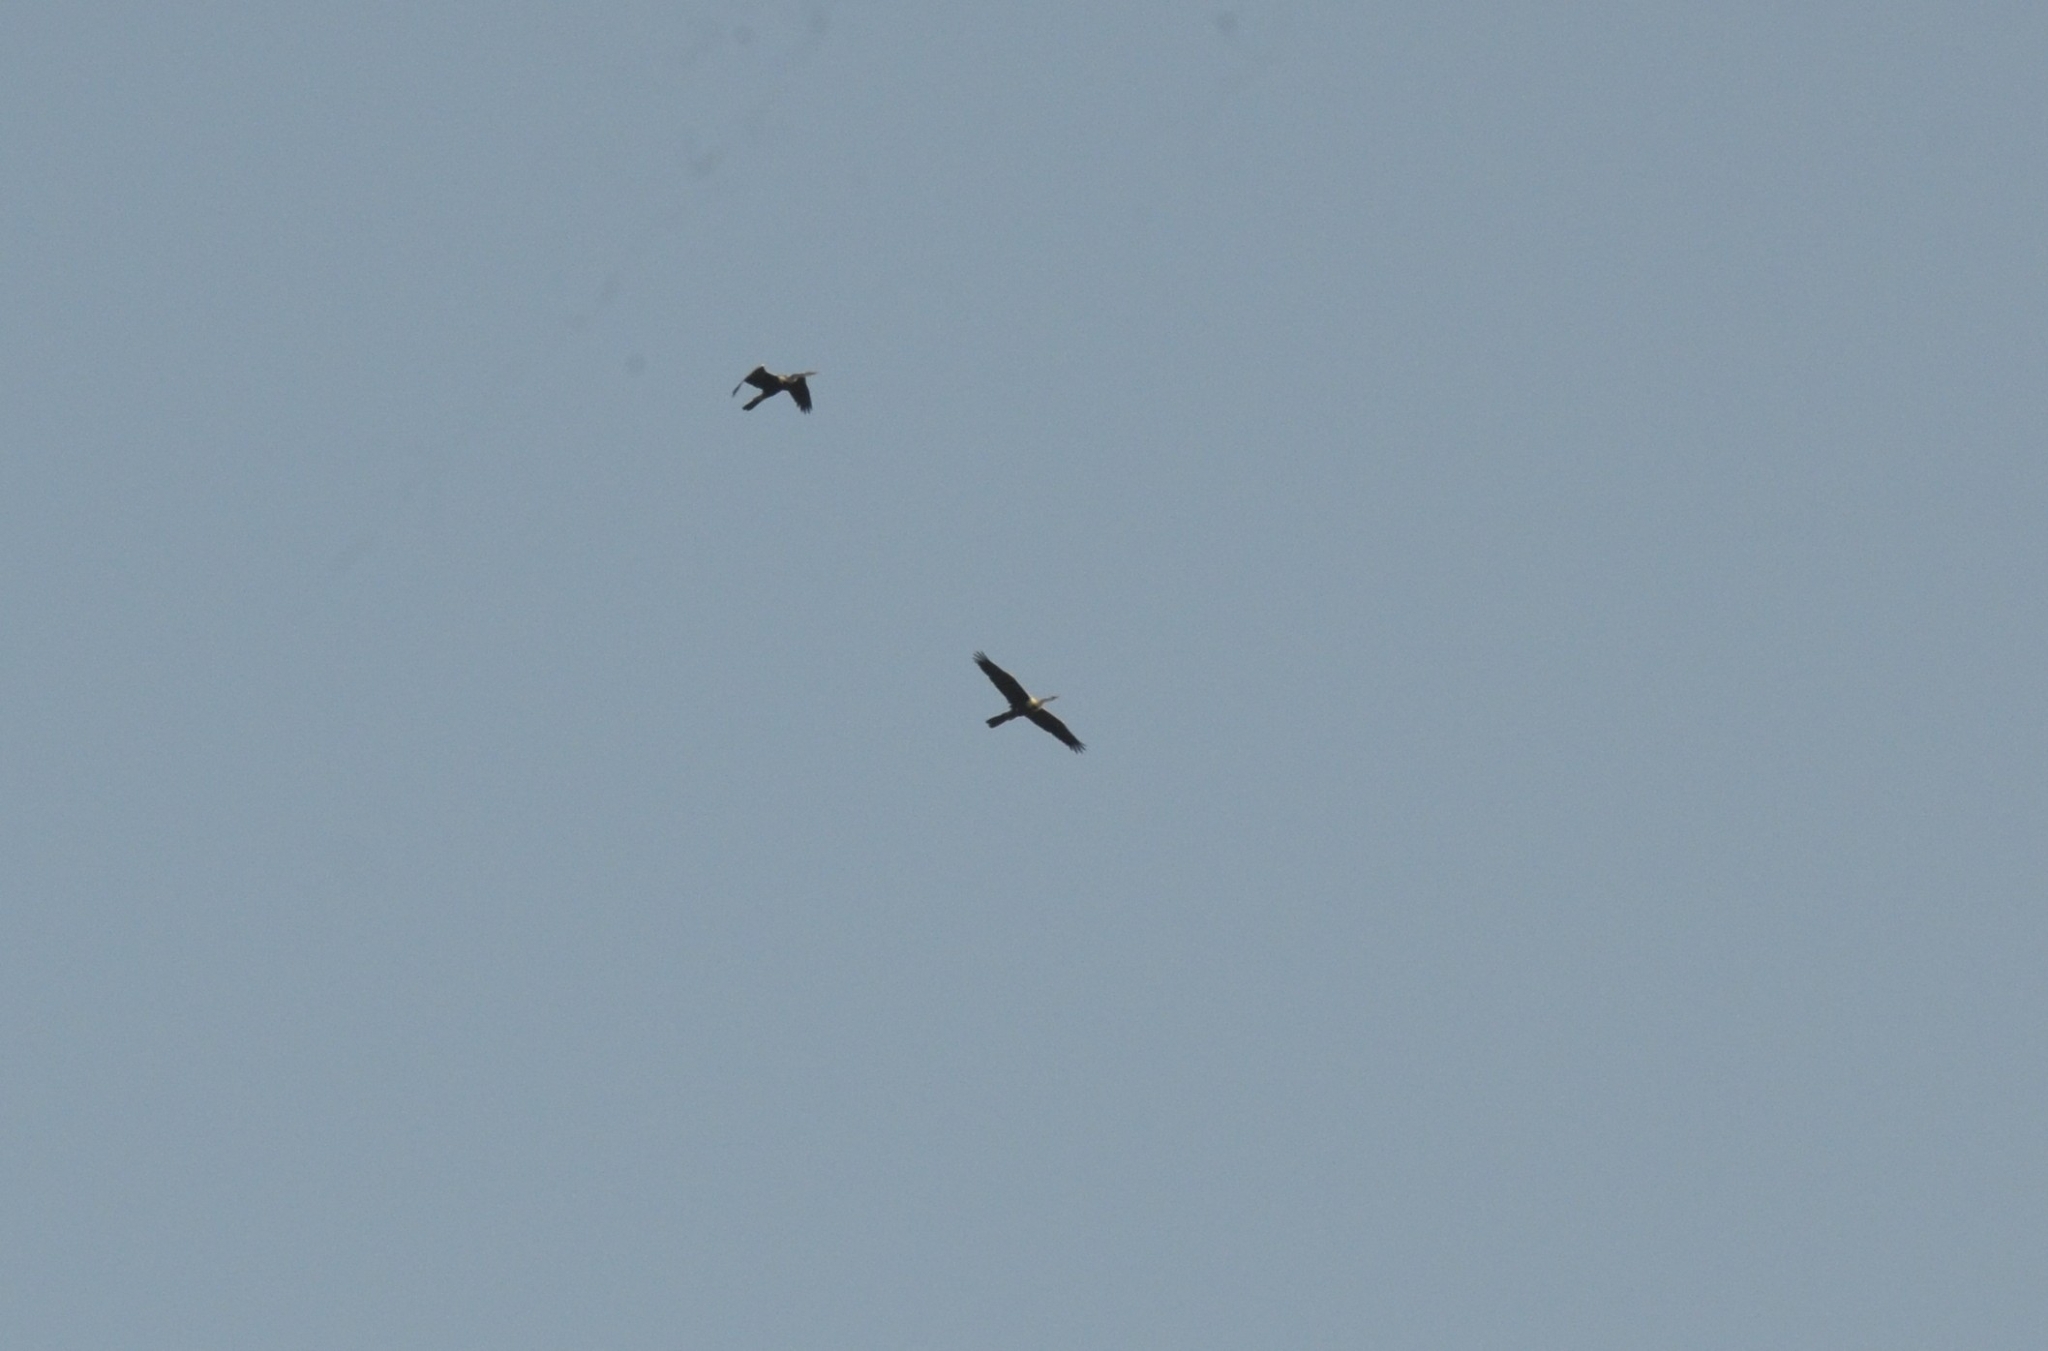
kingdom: Animalia
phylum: Chordata
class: Aves
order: Suliformes
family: Anhingidae
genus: Anhinga
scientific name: Anhinga melanogaster
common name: Oriental darter
